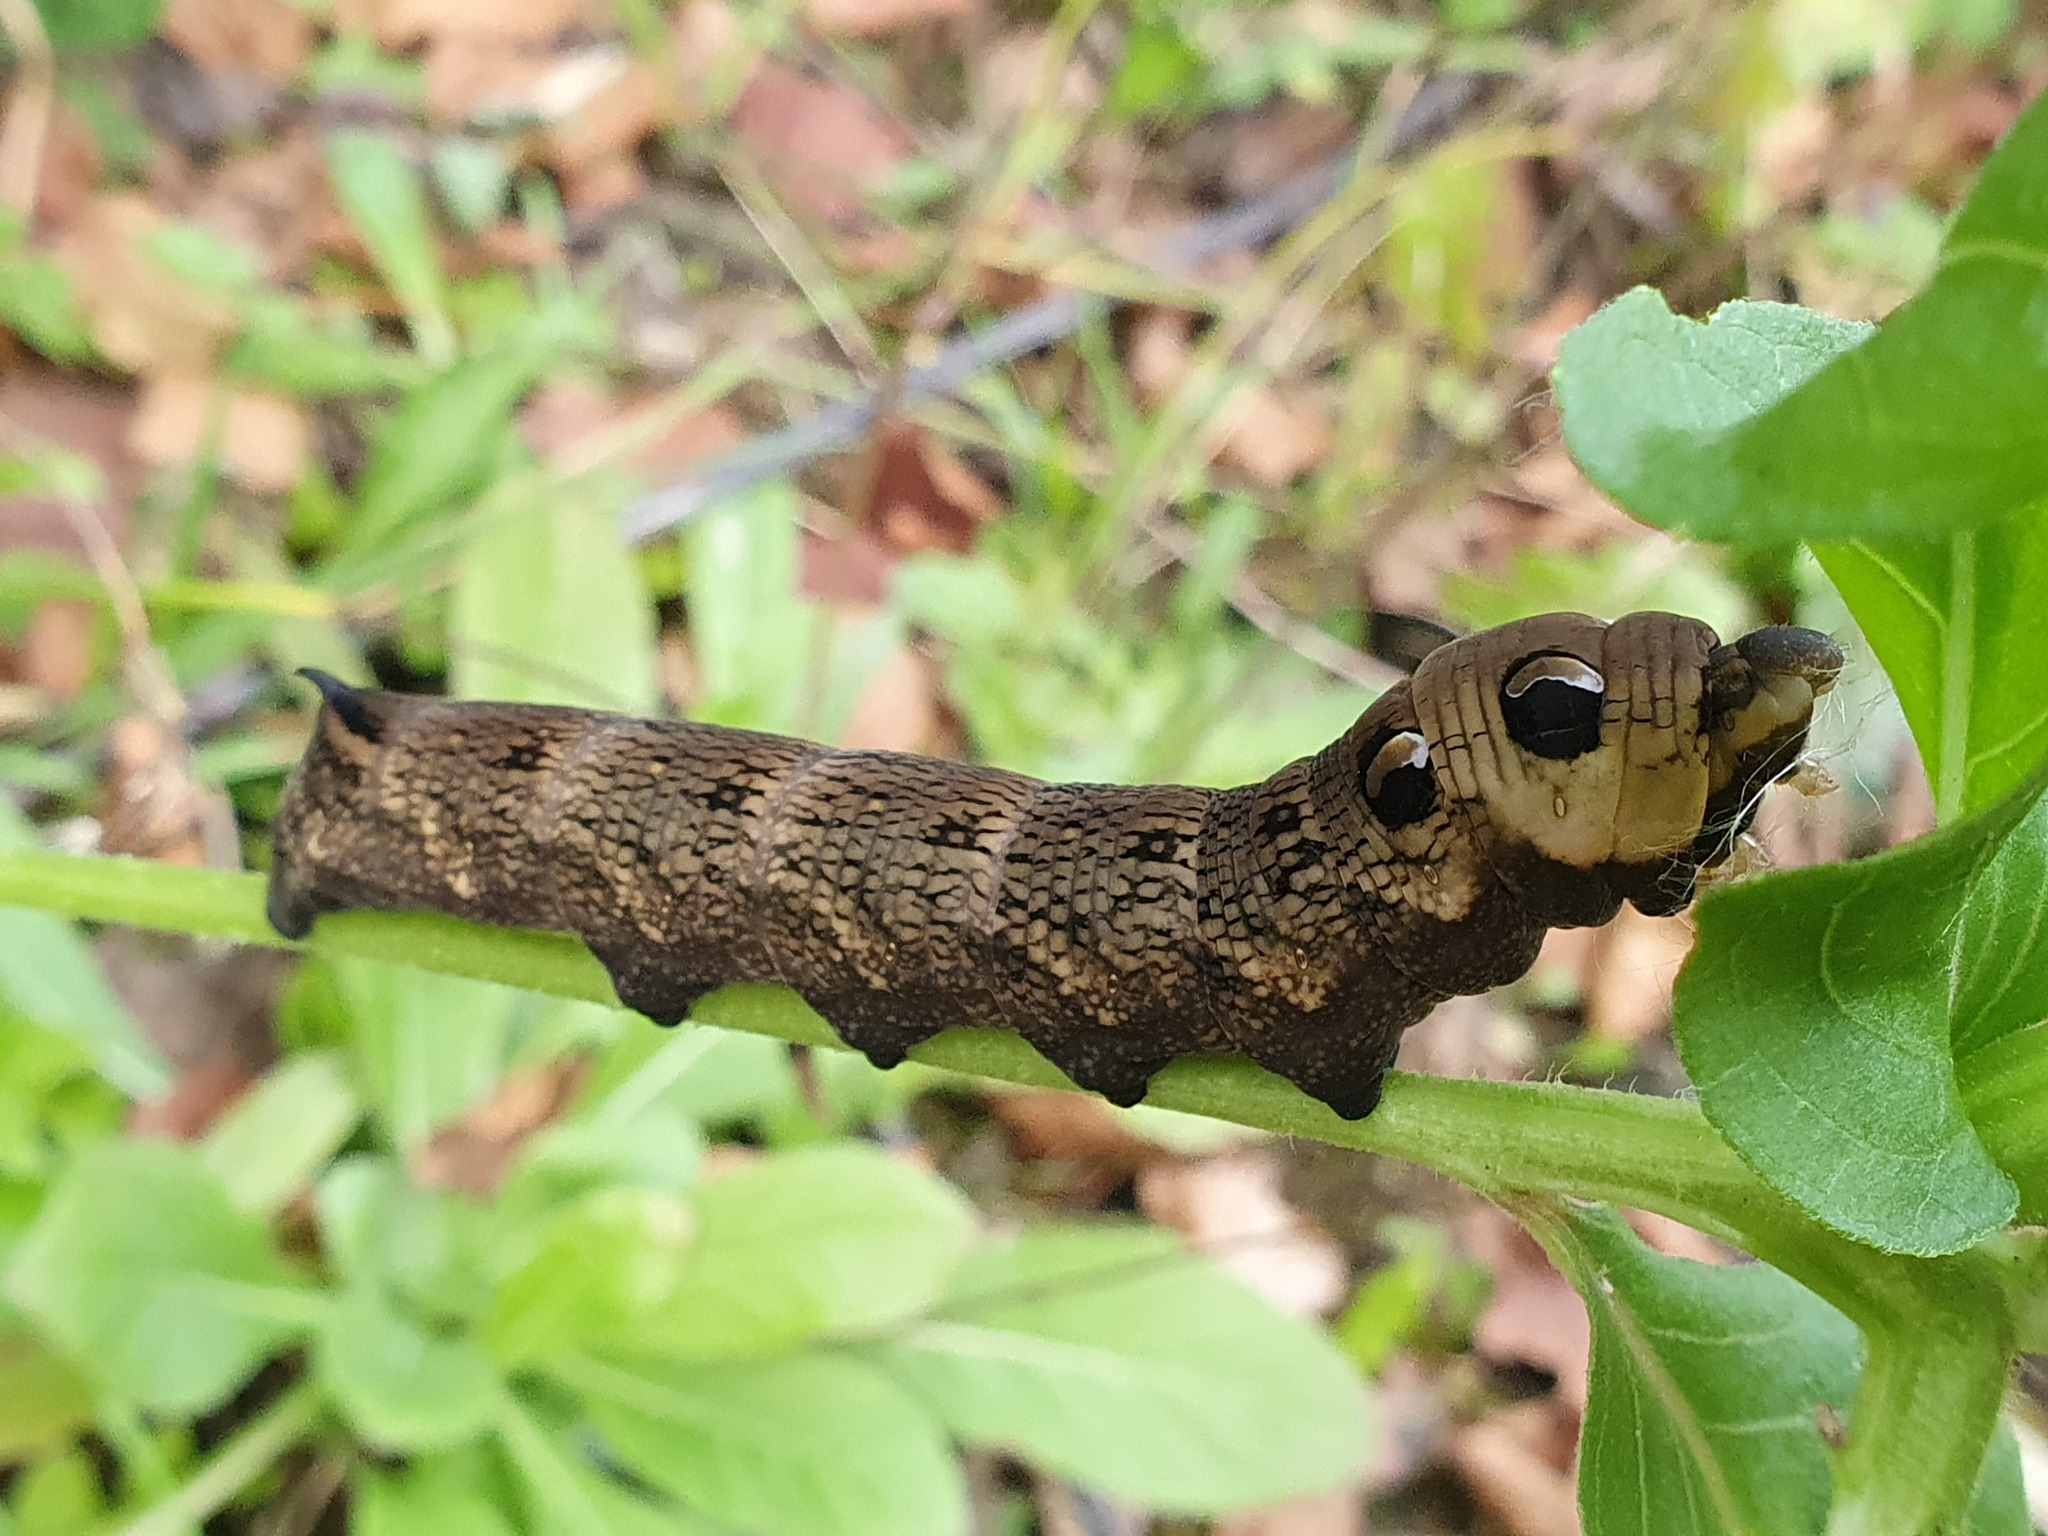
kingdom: Animalia
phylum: Arthropoda
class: Insecta
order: Lepidoptera
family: Sphingidae
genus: Deilephila
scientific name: Deilephila elpenor
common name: Elephant hawk-moth
